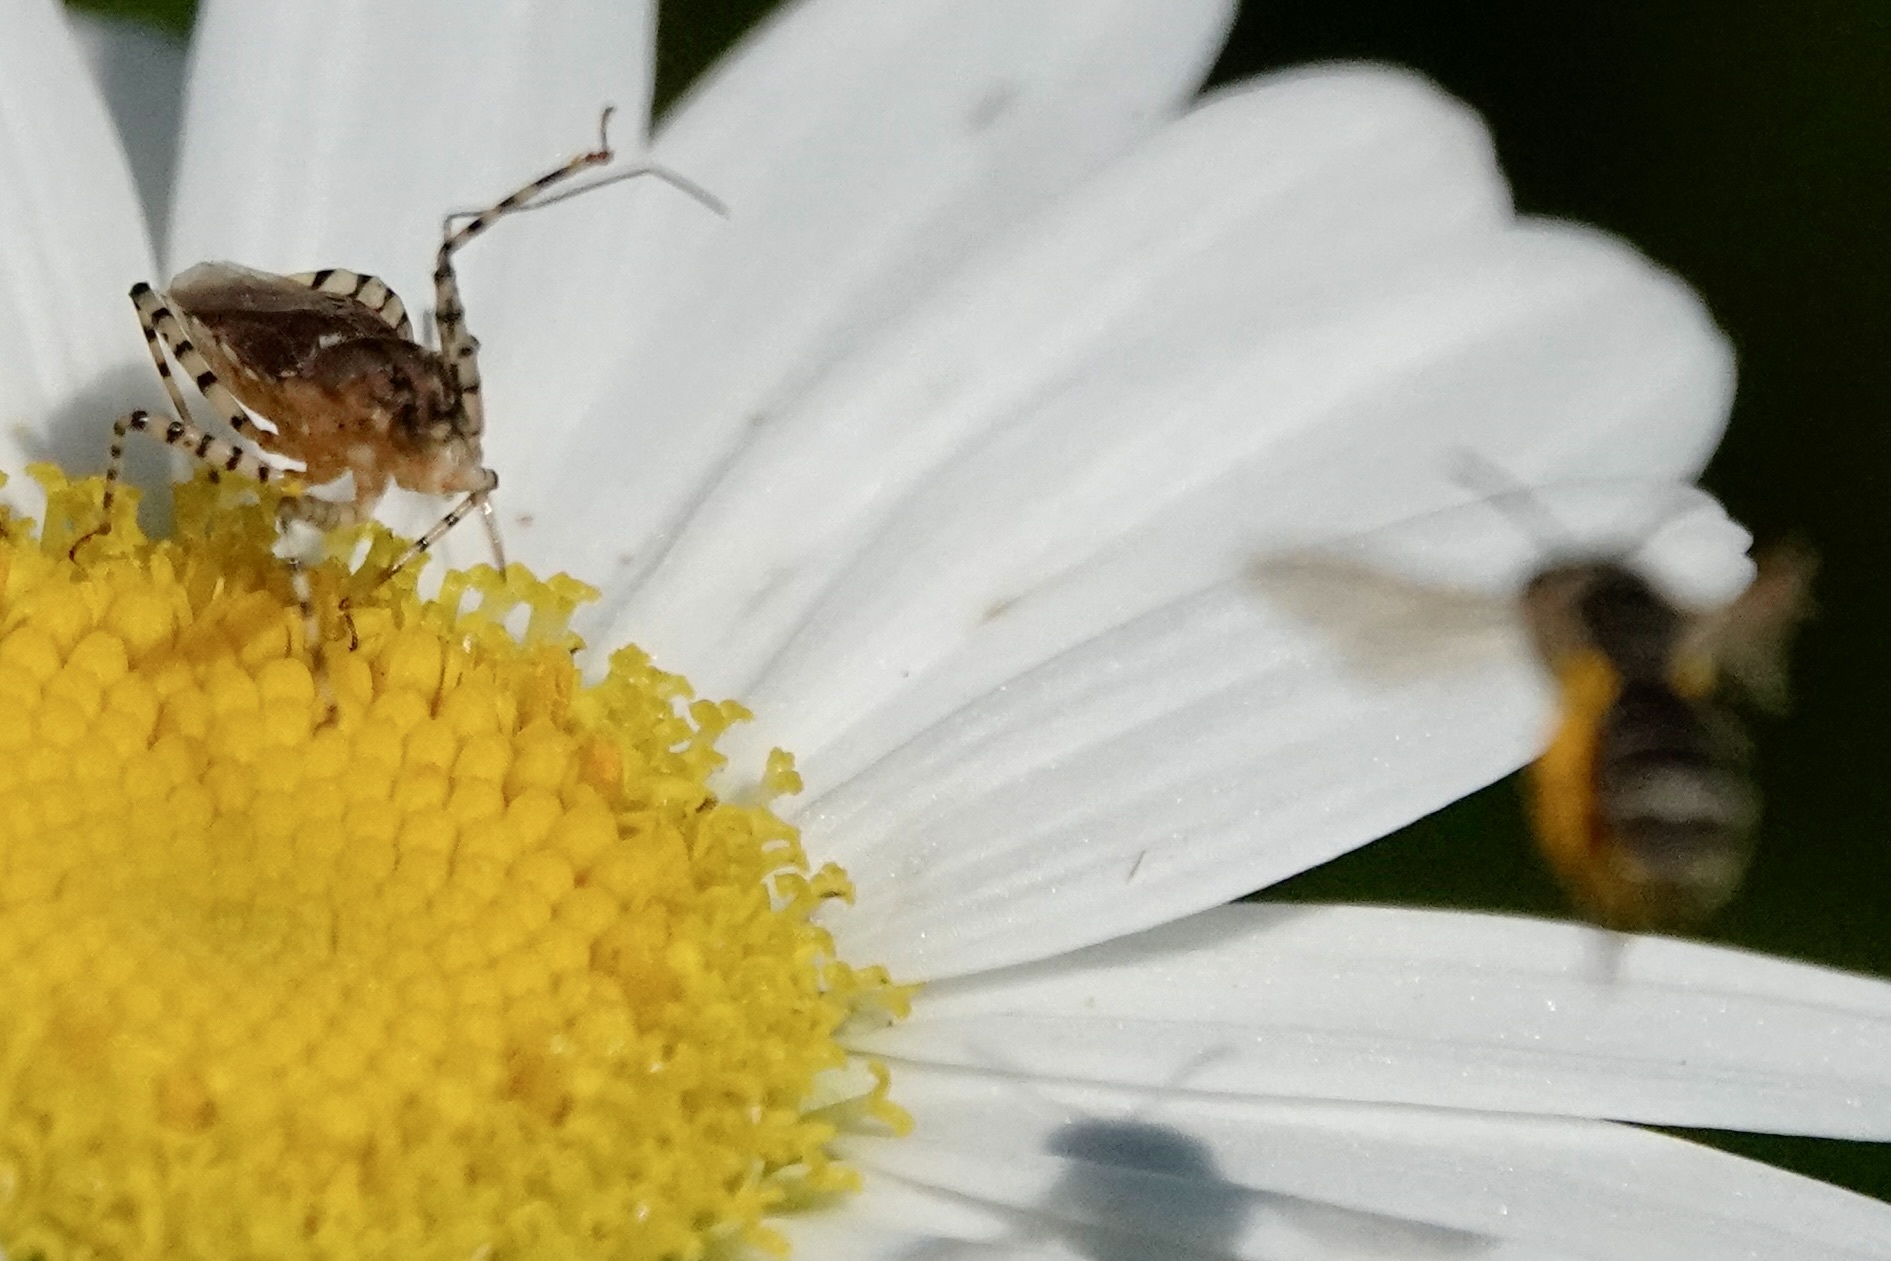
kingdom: Animalia
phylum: Arthropoda
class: Insecta
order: Hemiptera
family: Reduviidae
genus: Pselliopus
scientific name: Pselliopus cinctus
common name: Ringed assassin bug
